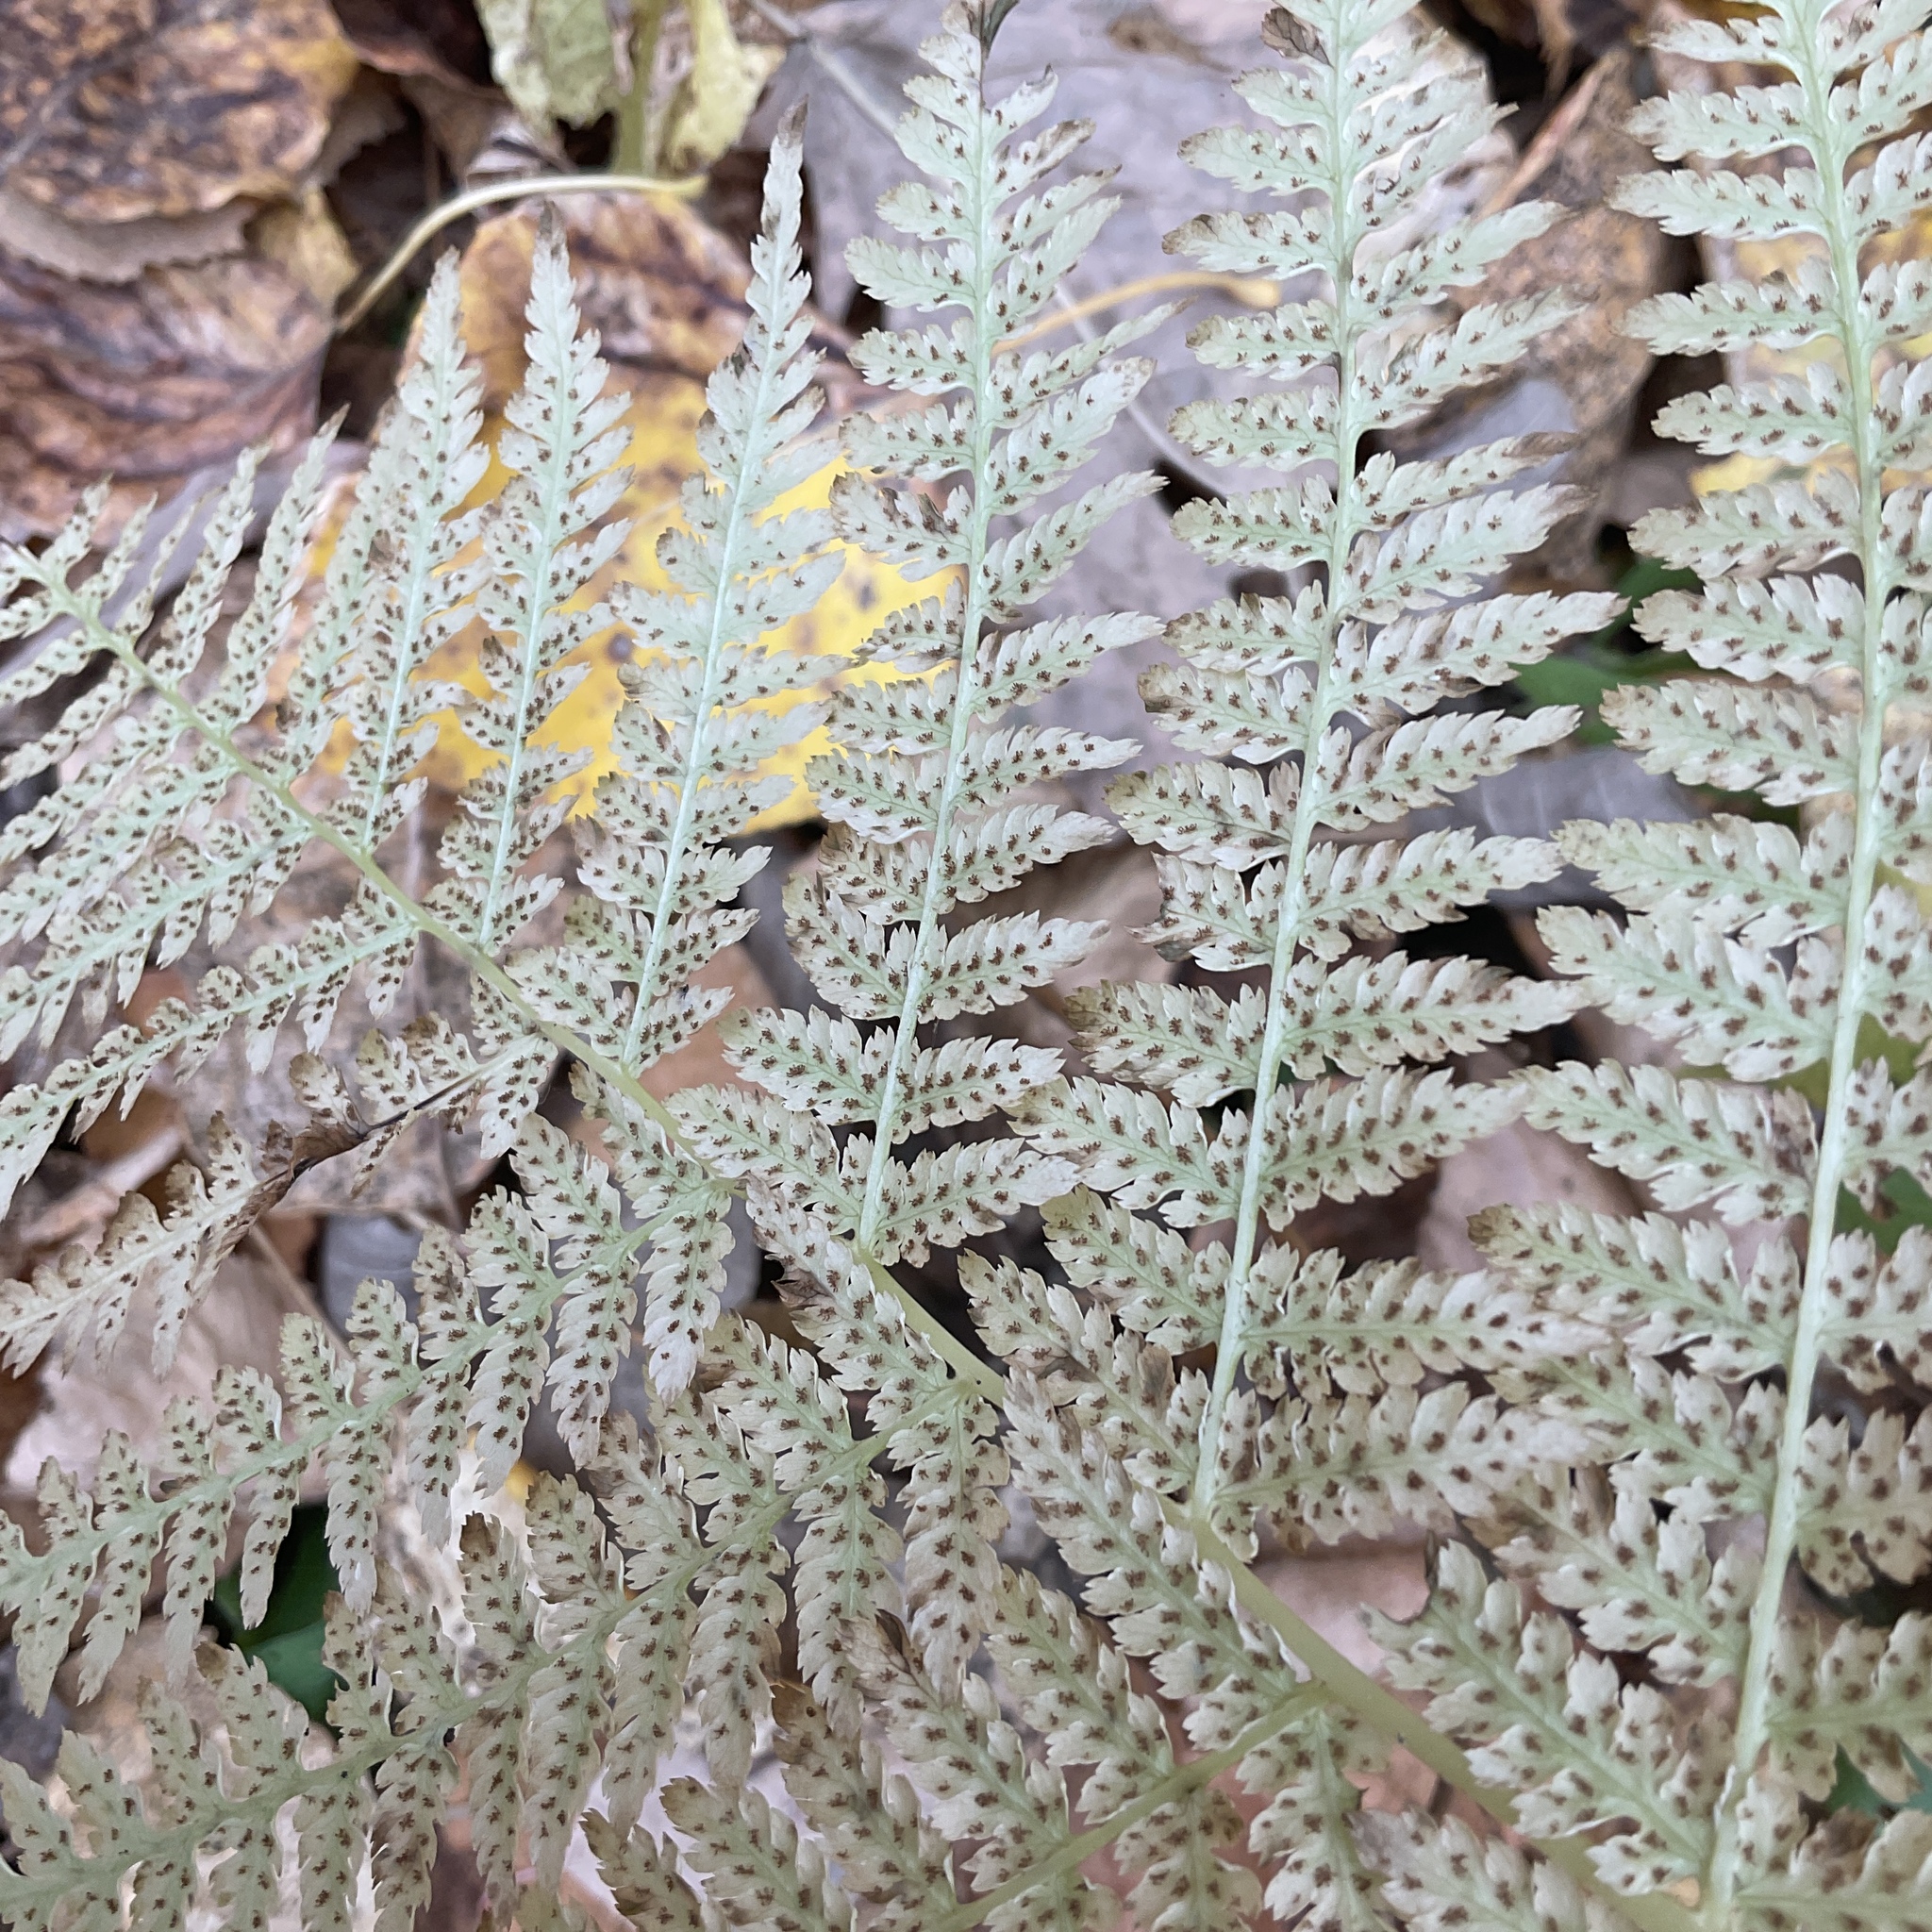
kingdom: Plantae
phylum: Tracheophyta
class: Polypodiopsida
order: Polypodiales
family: Athyriaceae
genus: Athyrium
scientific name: Athyrium filix-femina
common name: Lady fern
